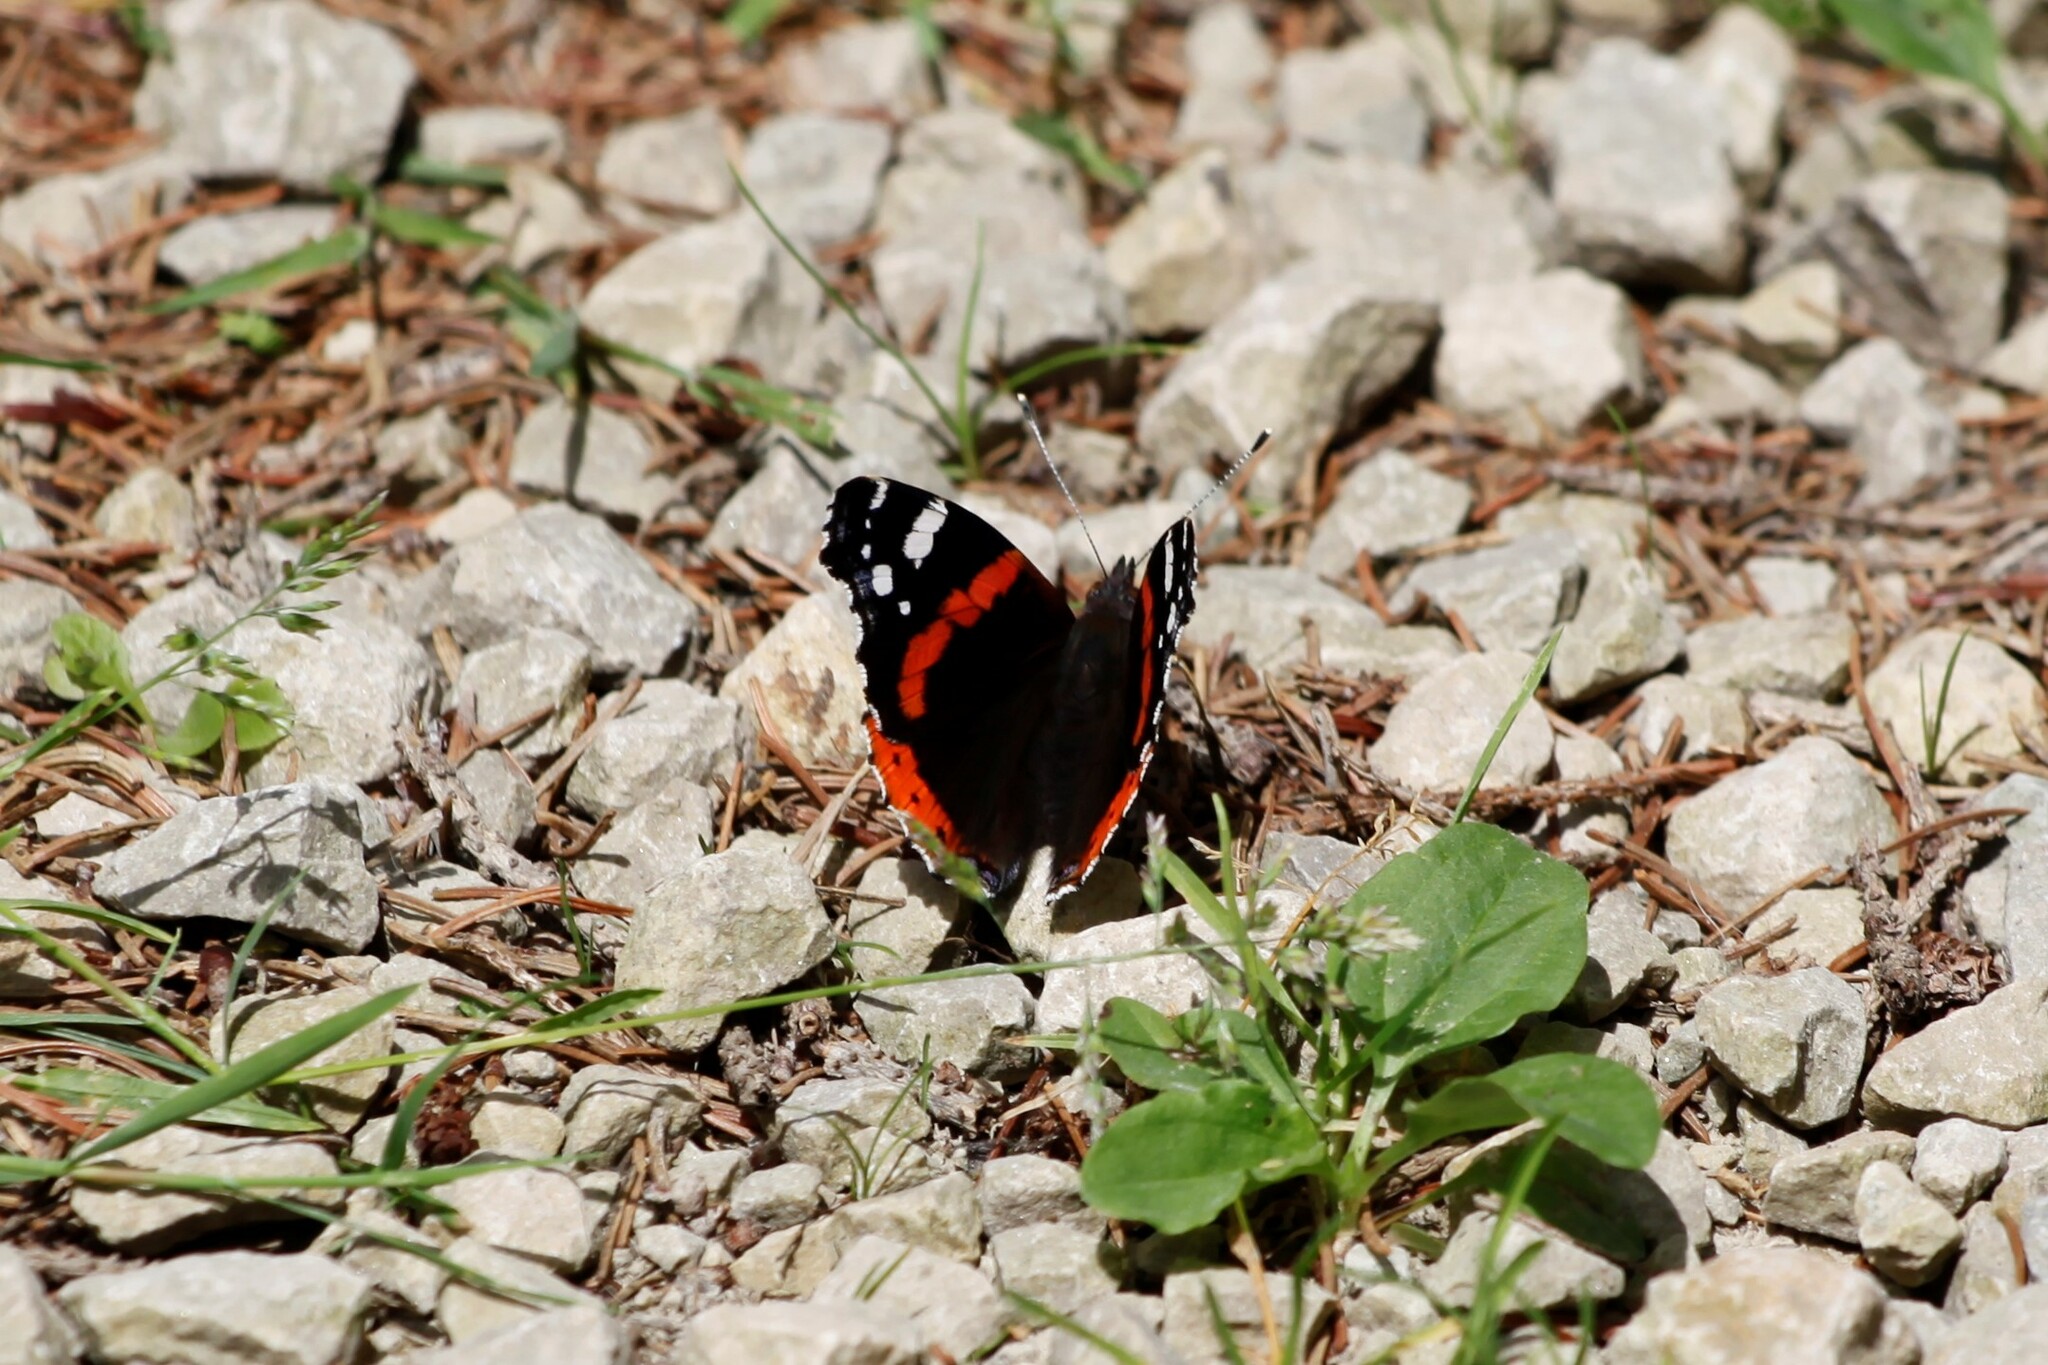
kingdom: Animalia
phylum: Arthropoda
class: Insecta
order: Lepidoptera
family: Nymphalidae
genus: Vanessa
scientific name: Vanessa atalanta
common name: Red admiral
